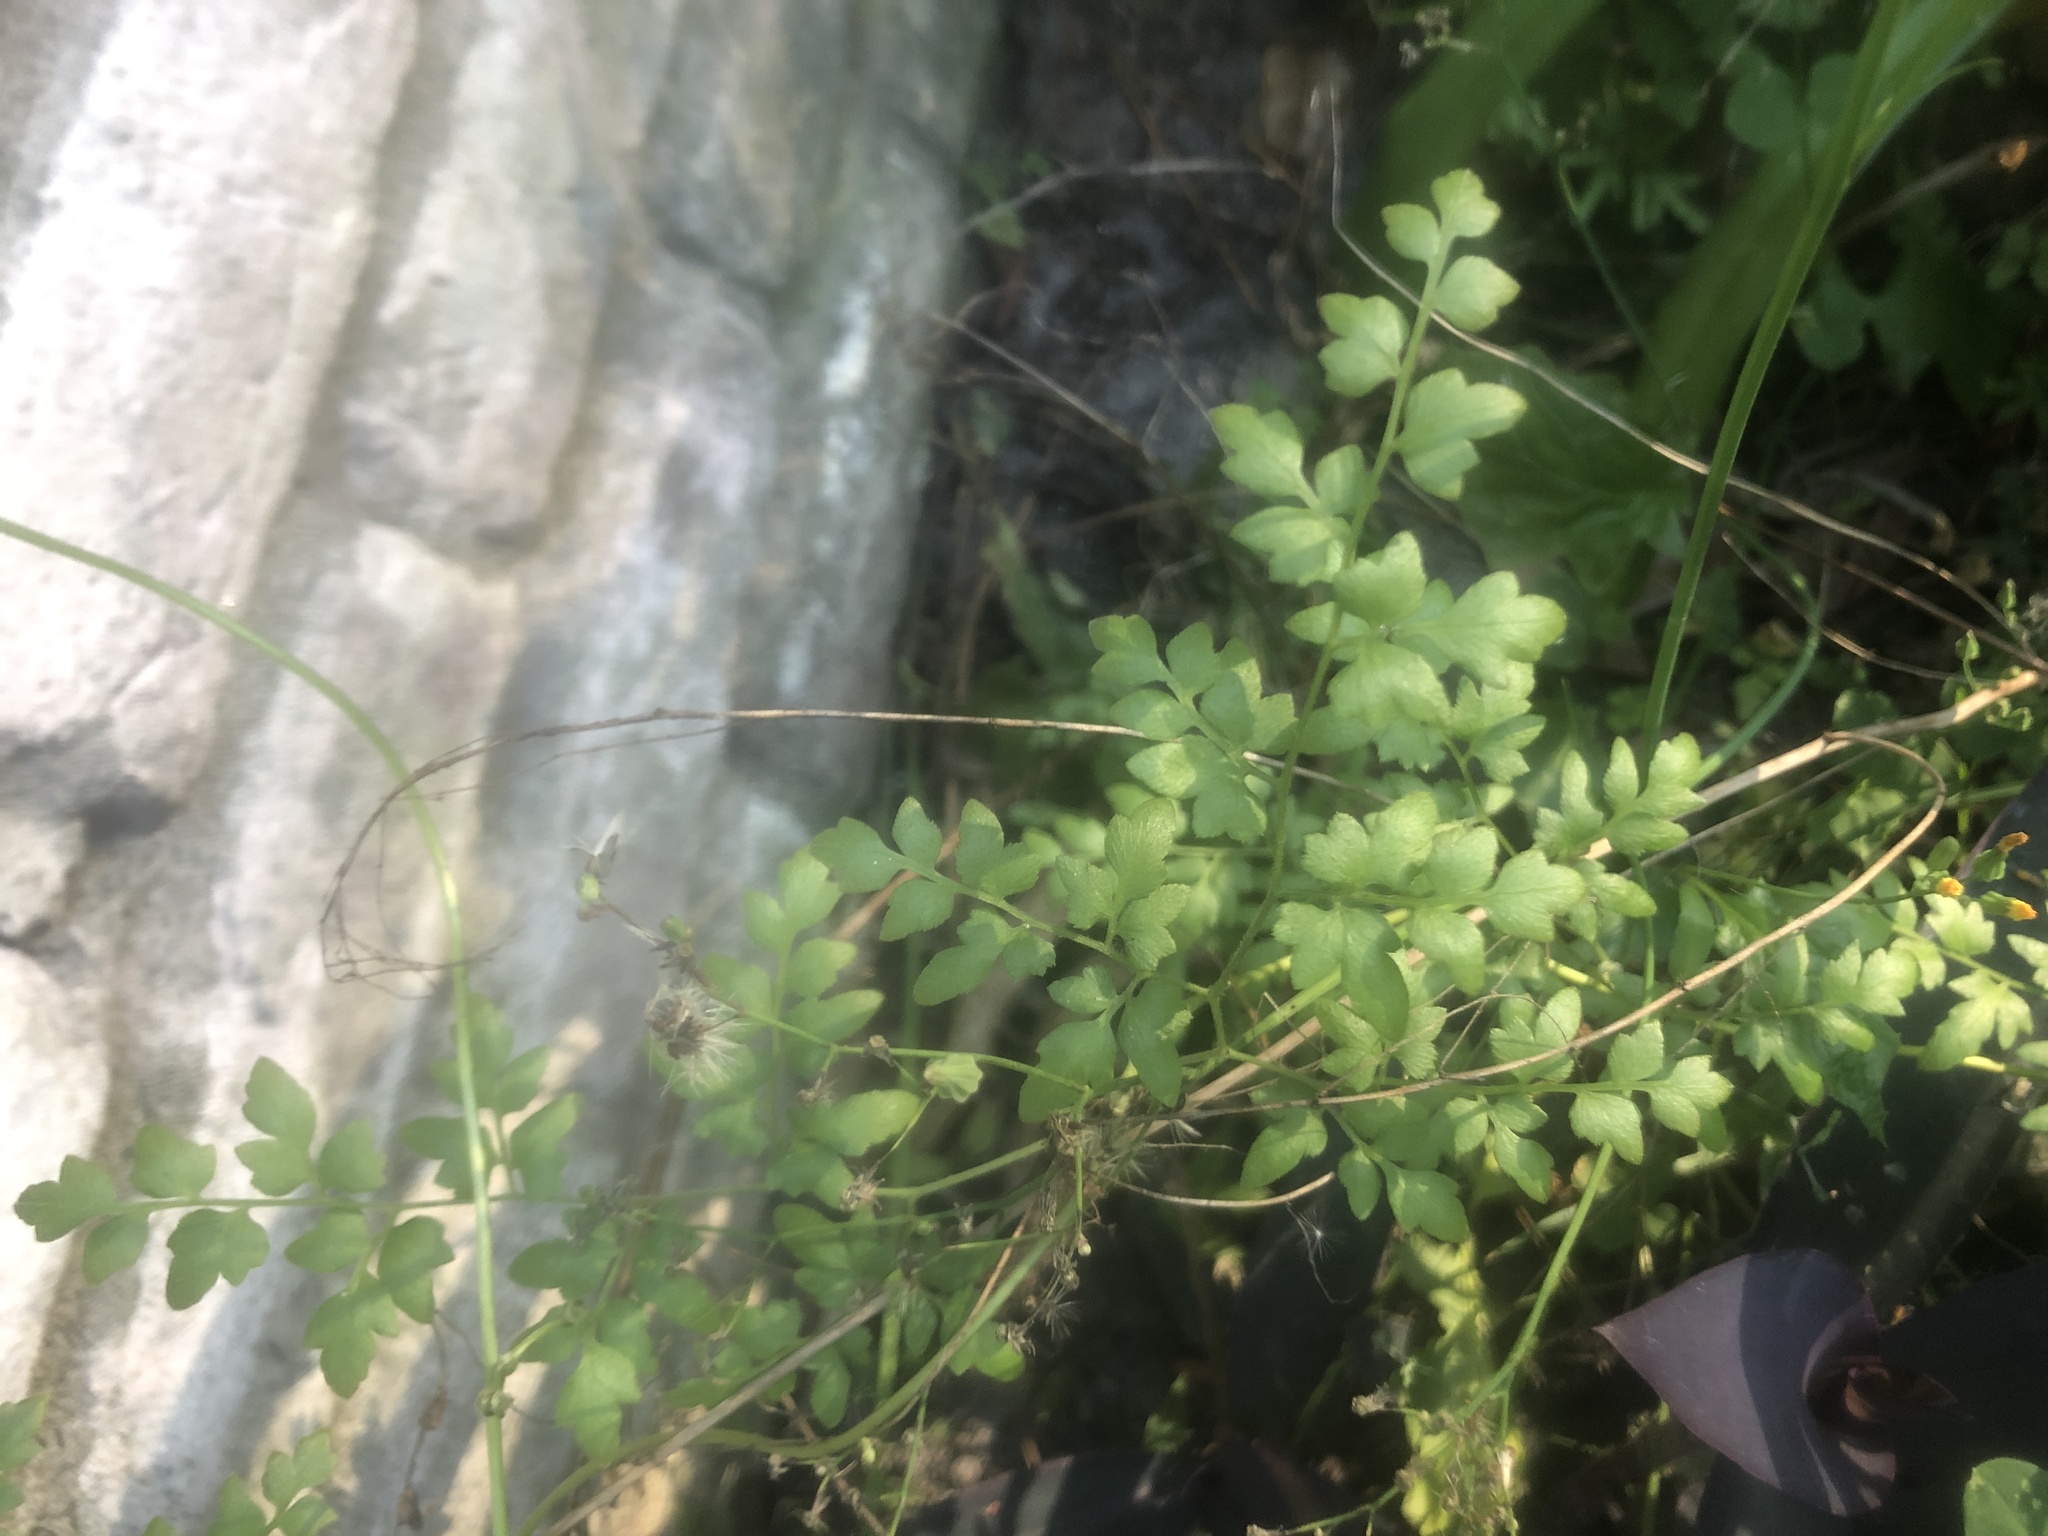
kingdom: Plantae
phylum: Tracheophyta
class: Polypodiopsida
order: Schizaeales
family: Lygodiaceae
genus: Lygodium
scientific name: Lygodium japonicum
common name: Japanese climbing fern
